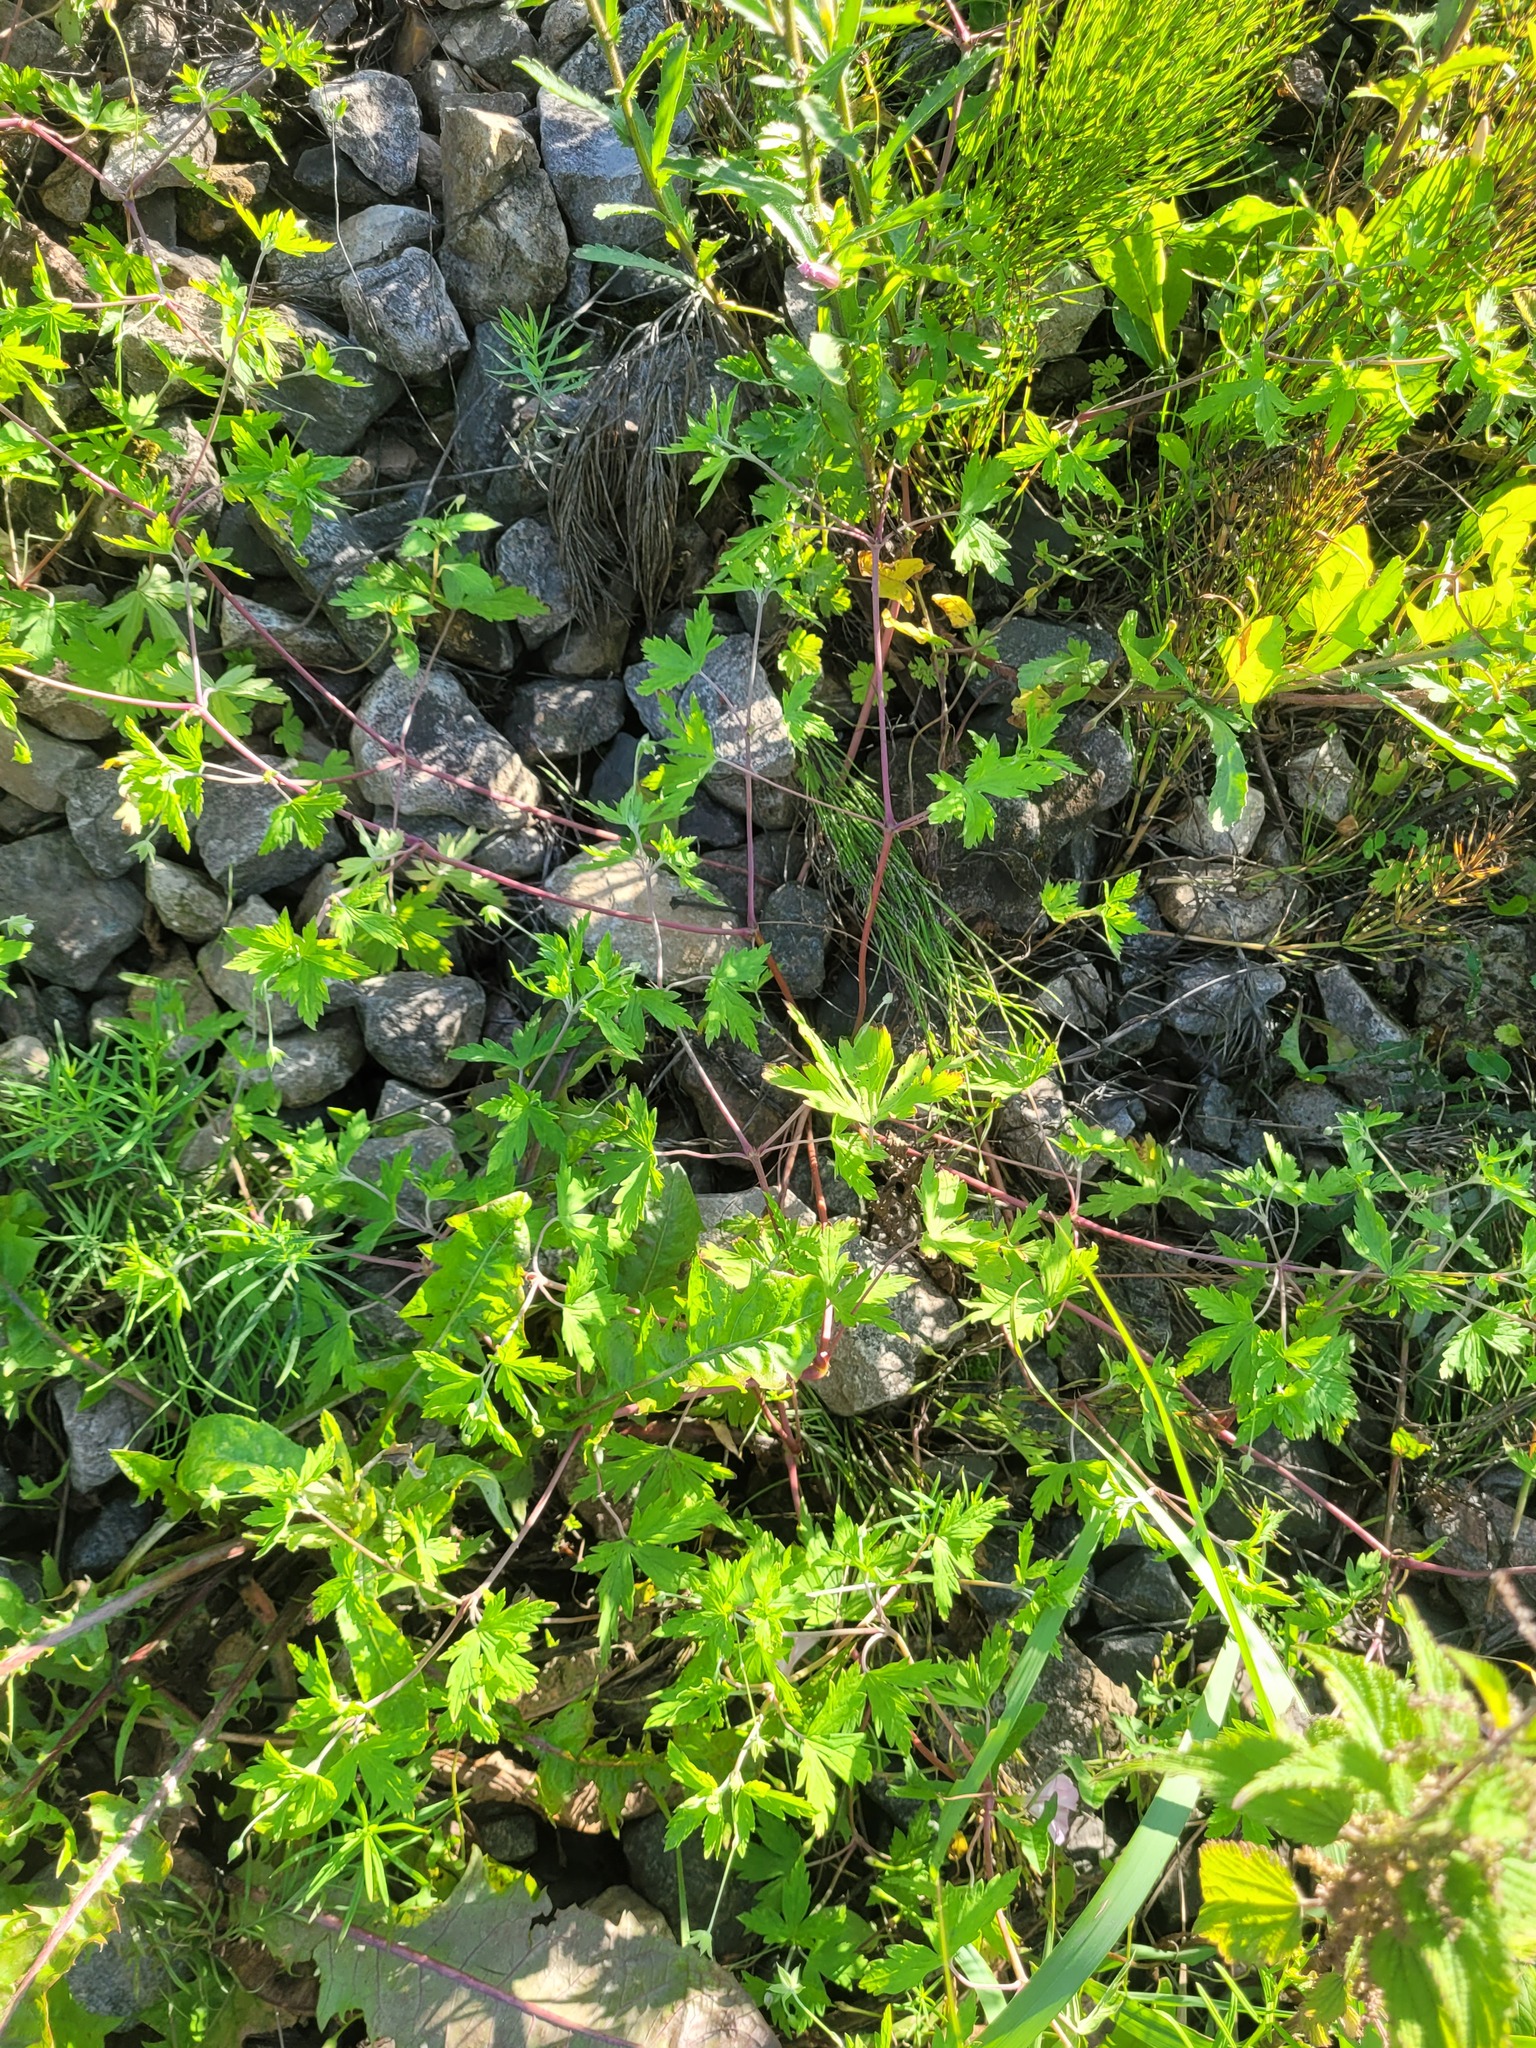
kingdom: Plantae
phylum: Tracheophyta
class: Magnoliopsida
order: Geraniales
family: Geraniaceae
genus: Geranium
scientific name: Geranium sibiricum
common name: Siberian crane's-bill
